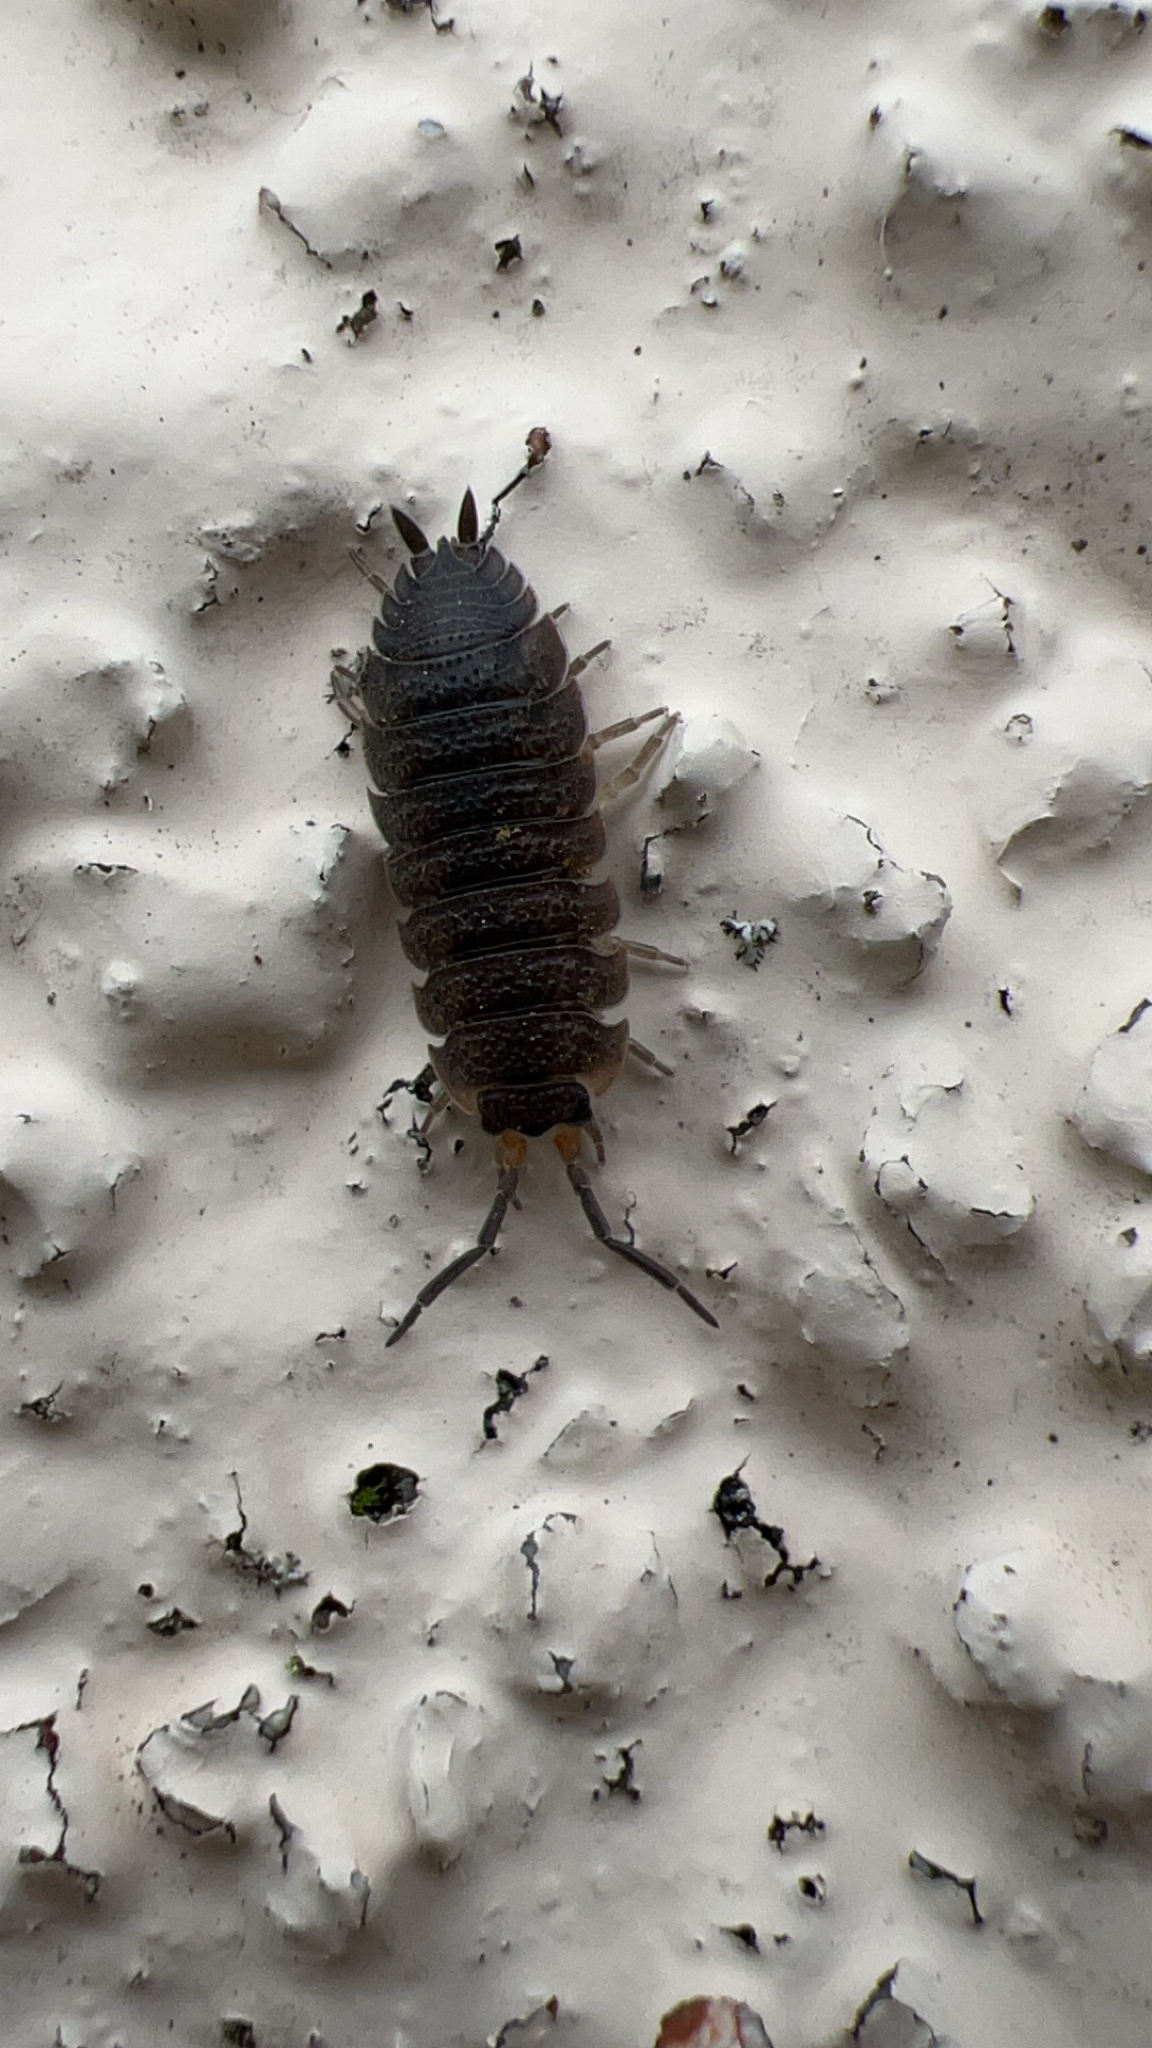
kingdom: Animalia
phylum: Arthropoda
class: Malacostraca
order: Isopoda
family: Porcellionidae
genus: Porcellio
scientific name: Porcellio scaber
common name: Common rough woodlouse
